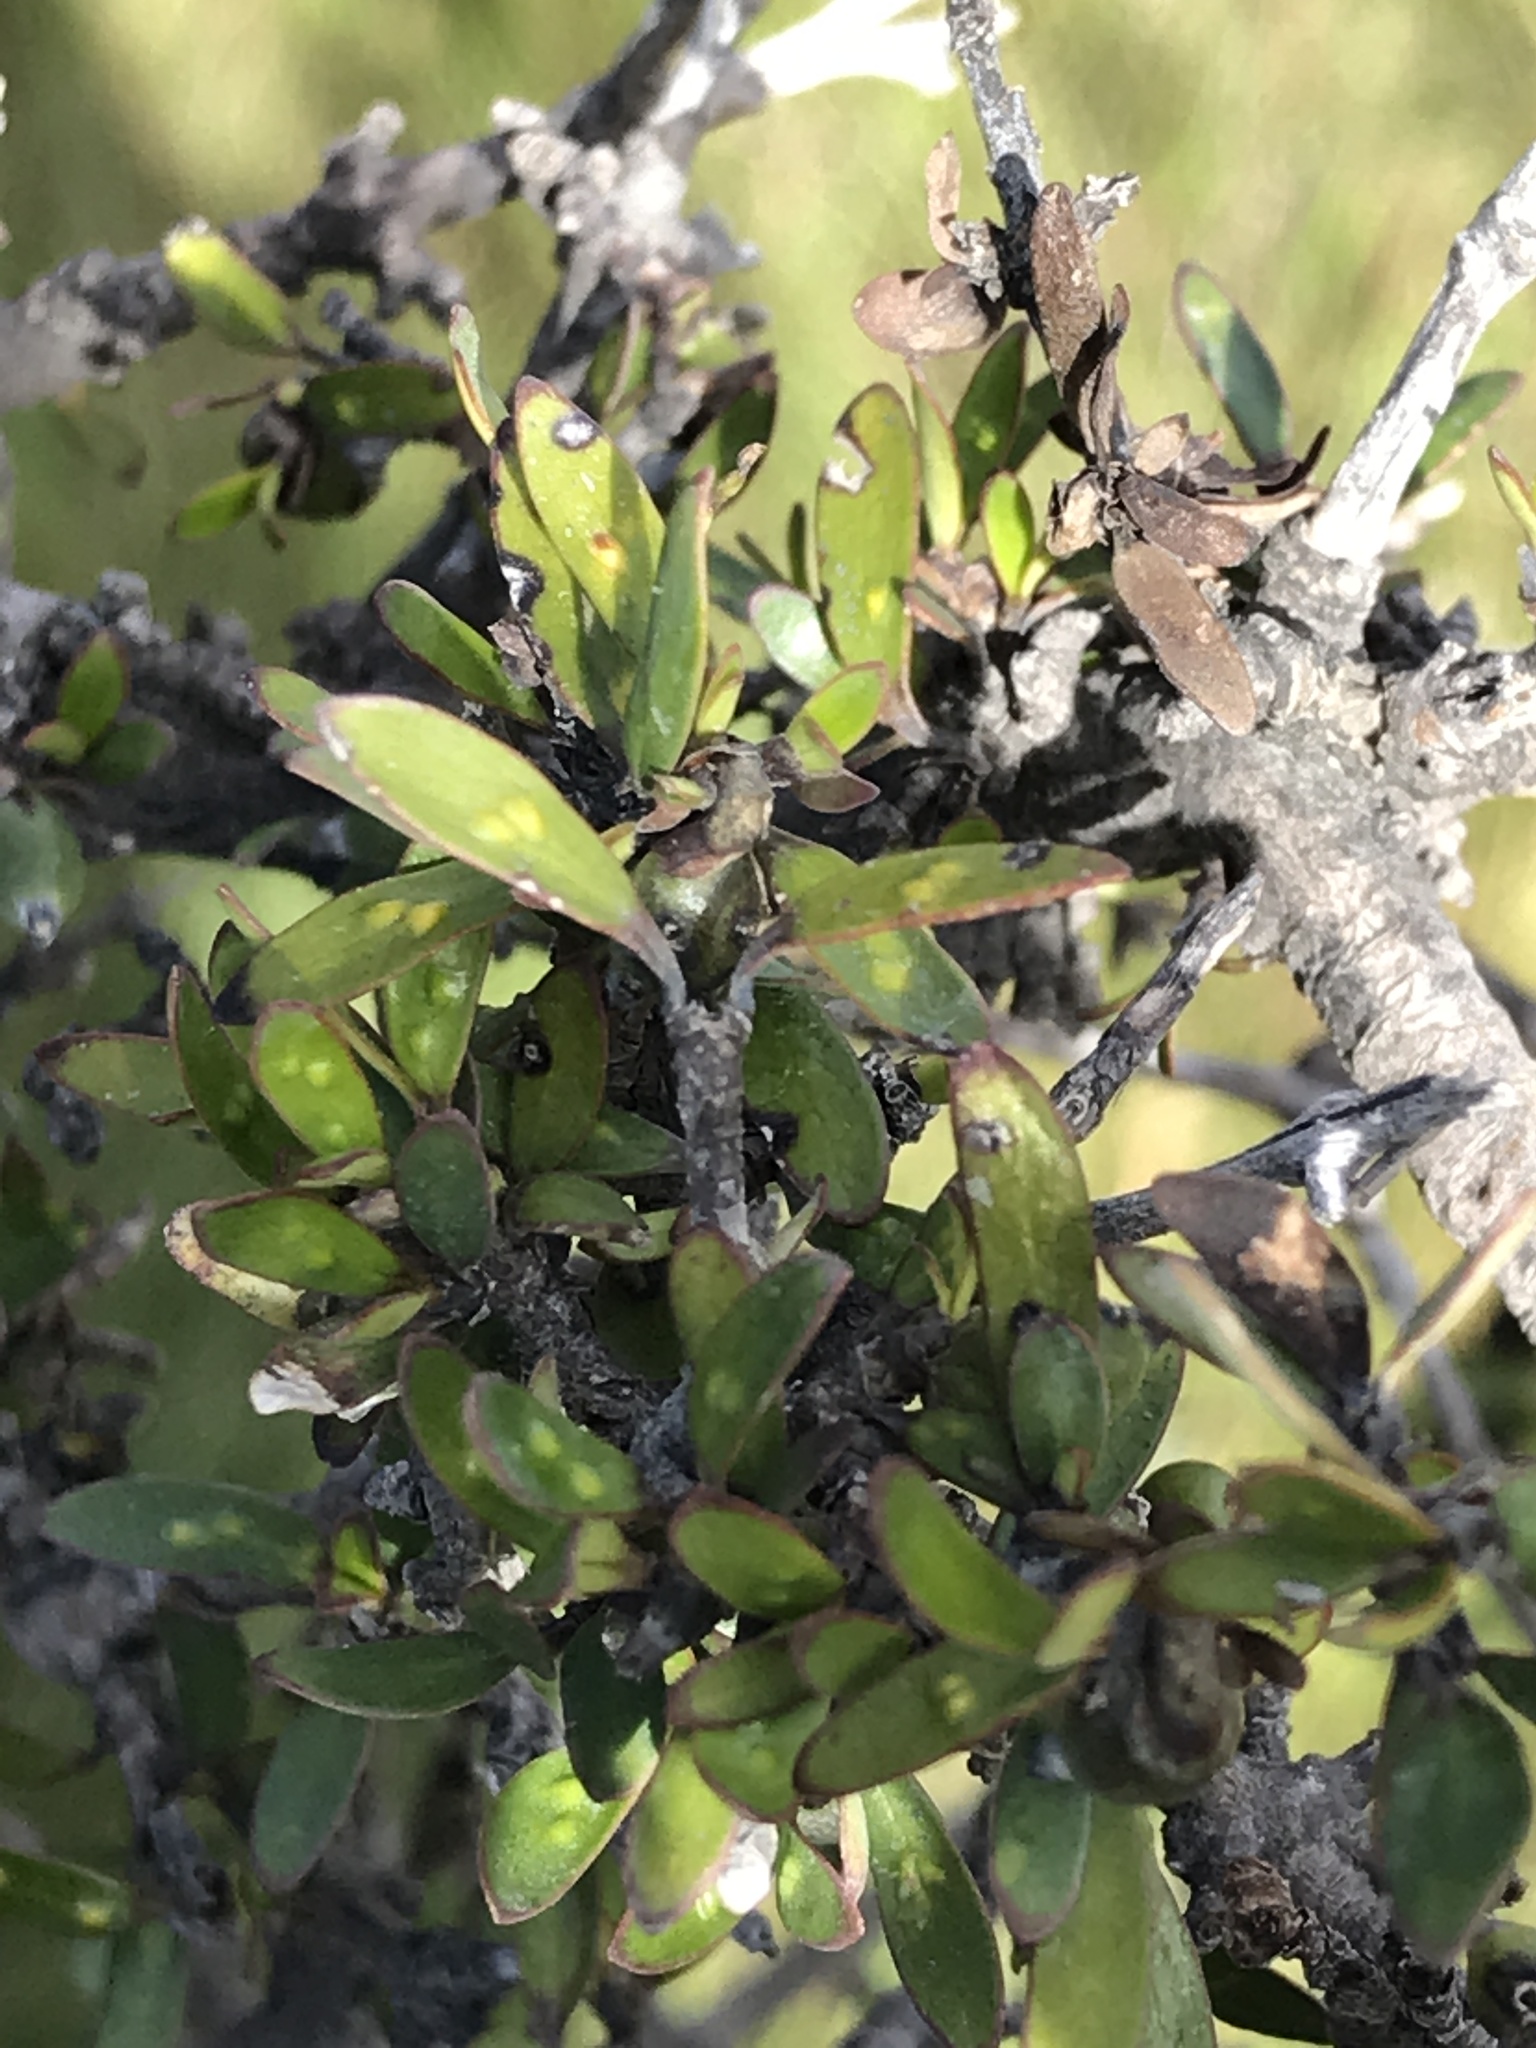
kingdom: Plantae
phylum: Tracheophyta
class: Magnoliopsida
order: Gentianales
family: Rubiaceae
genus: Coprosma
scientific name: Coprosma propinqua
